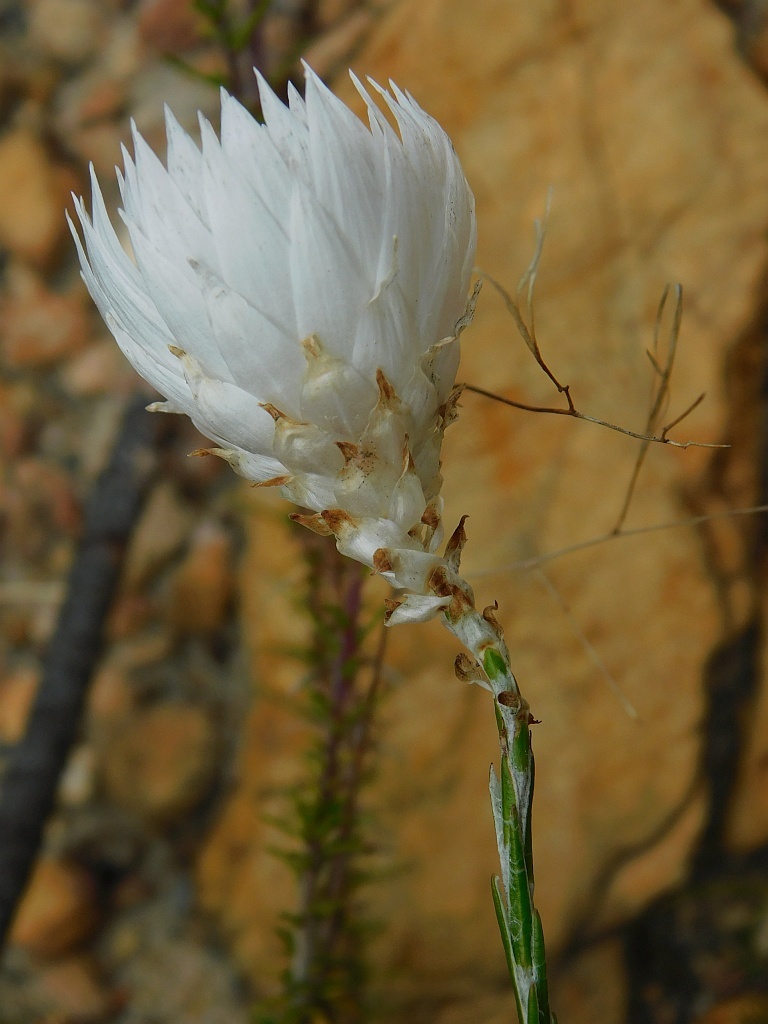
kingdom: Plantae
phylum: Tracheophyta
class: Magnoliopsida
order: Asterales
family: Asteraceae
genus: Edmondia
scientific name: Edmondia sesamoides
